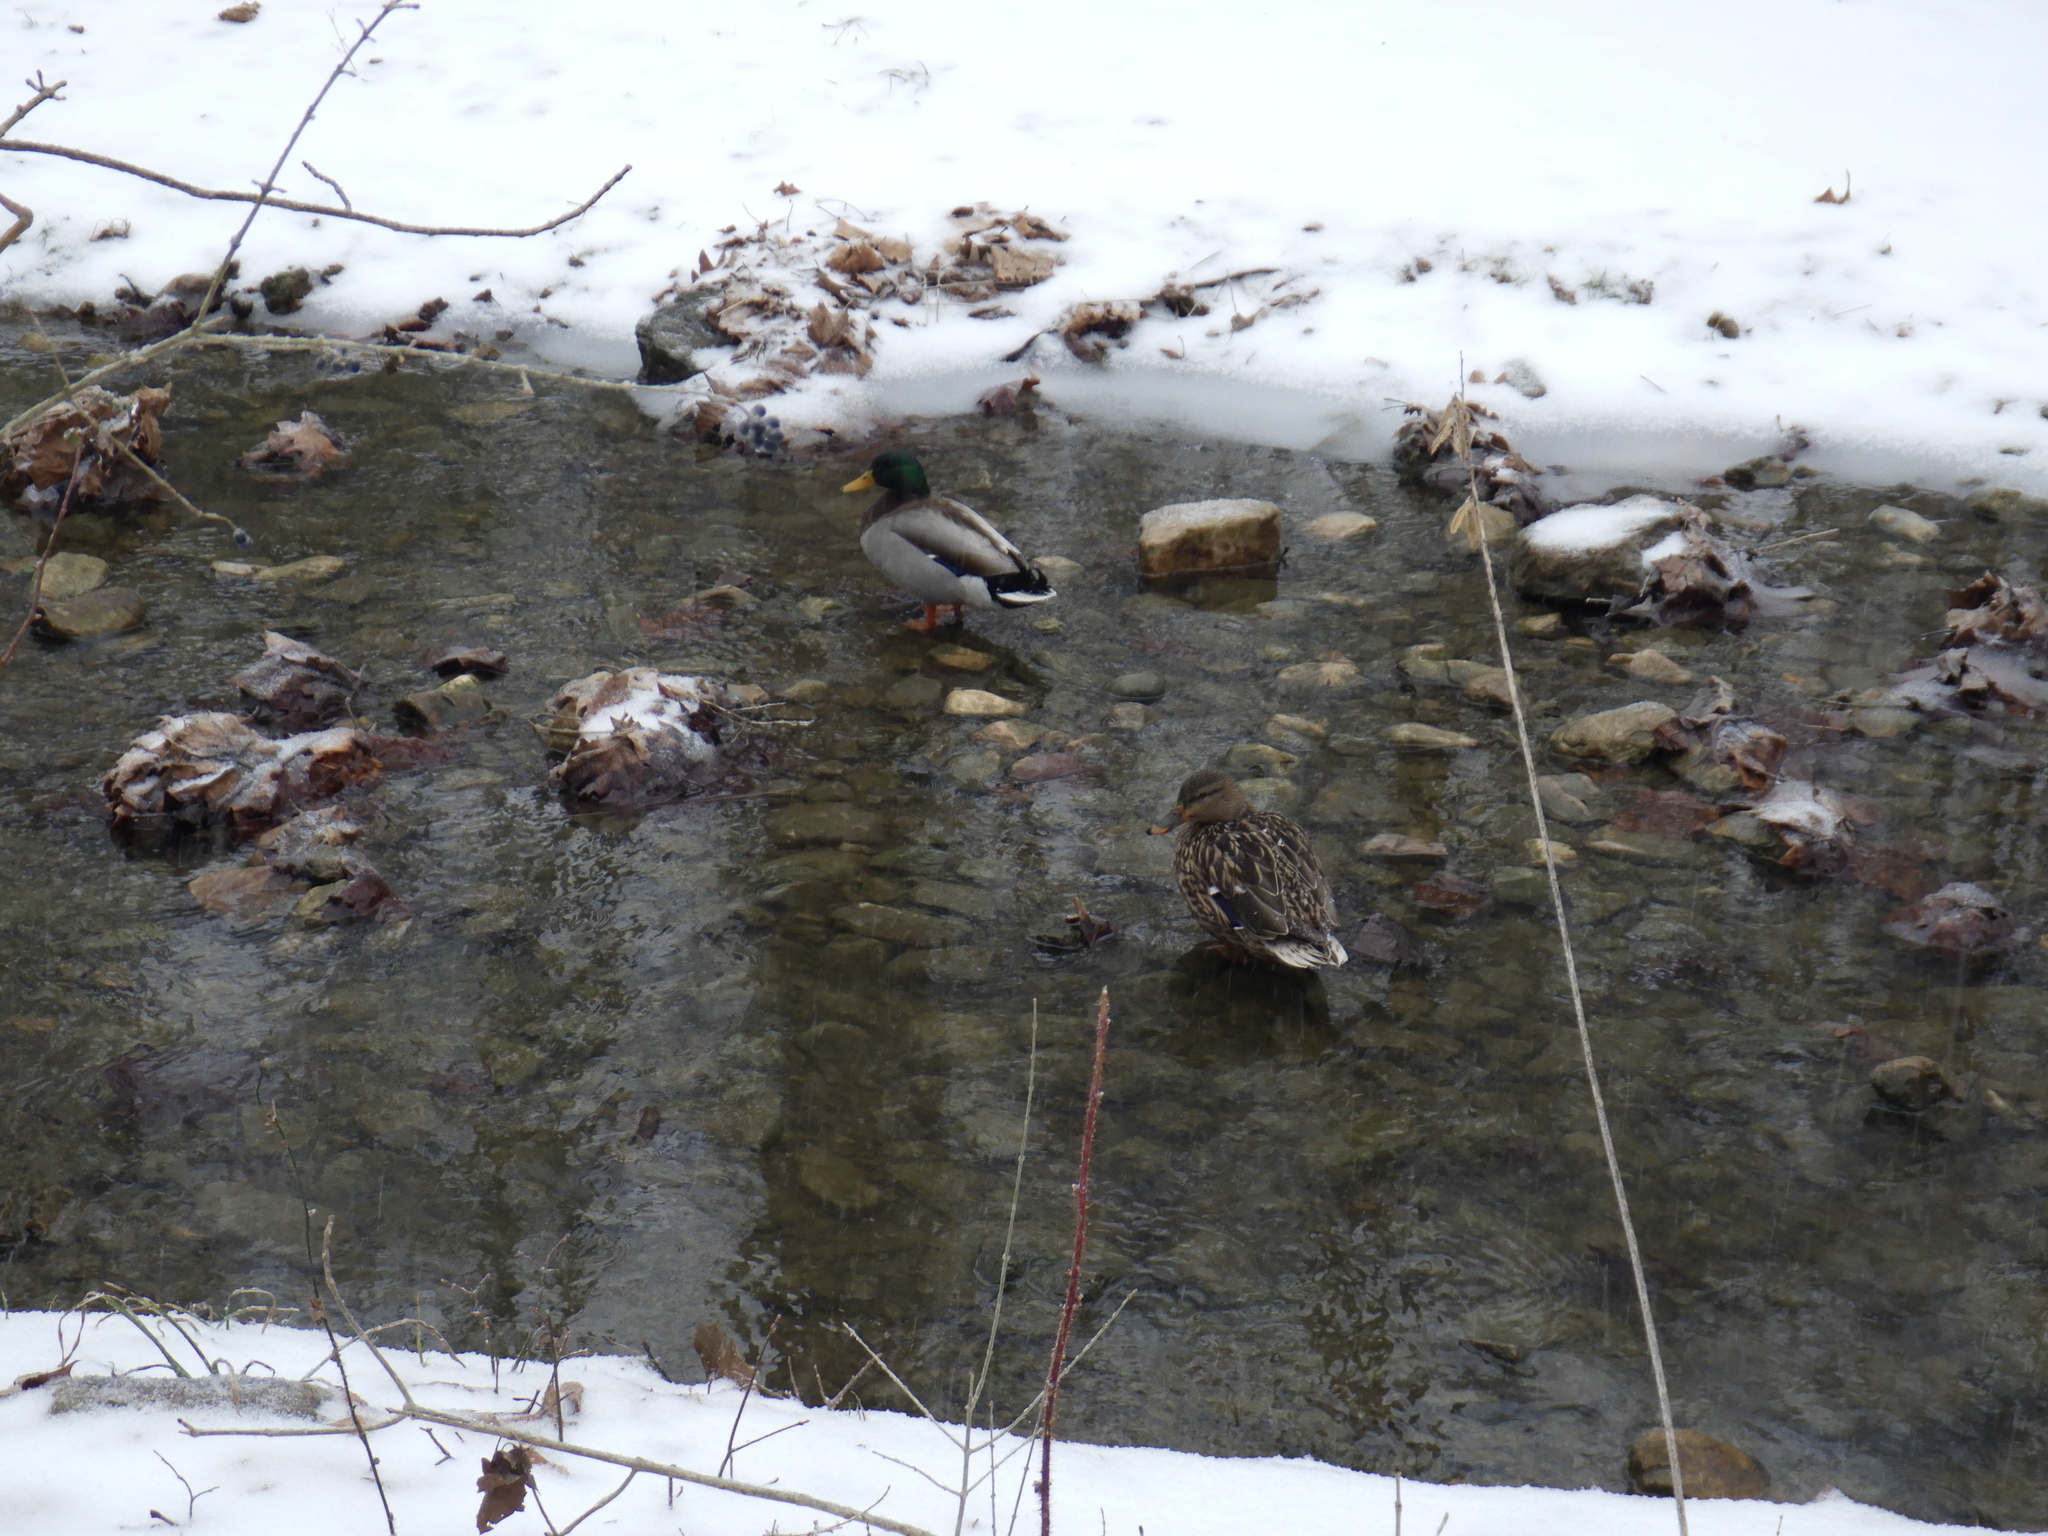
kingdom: Animalia
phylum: Chordata
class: Aves
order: Anseriformes
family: Anatidae
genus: Anas
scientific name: Anas platyrhynchos
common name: Mallard
